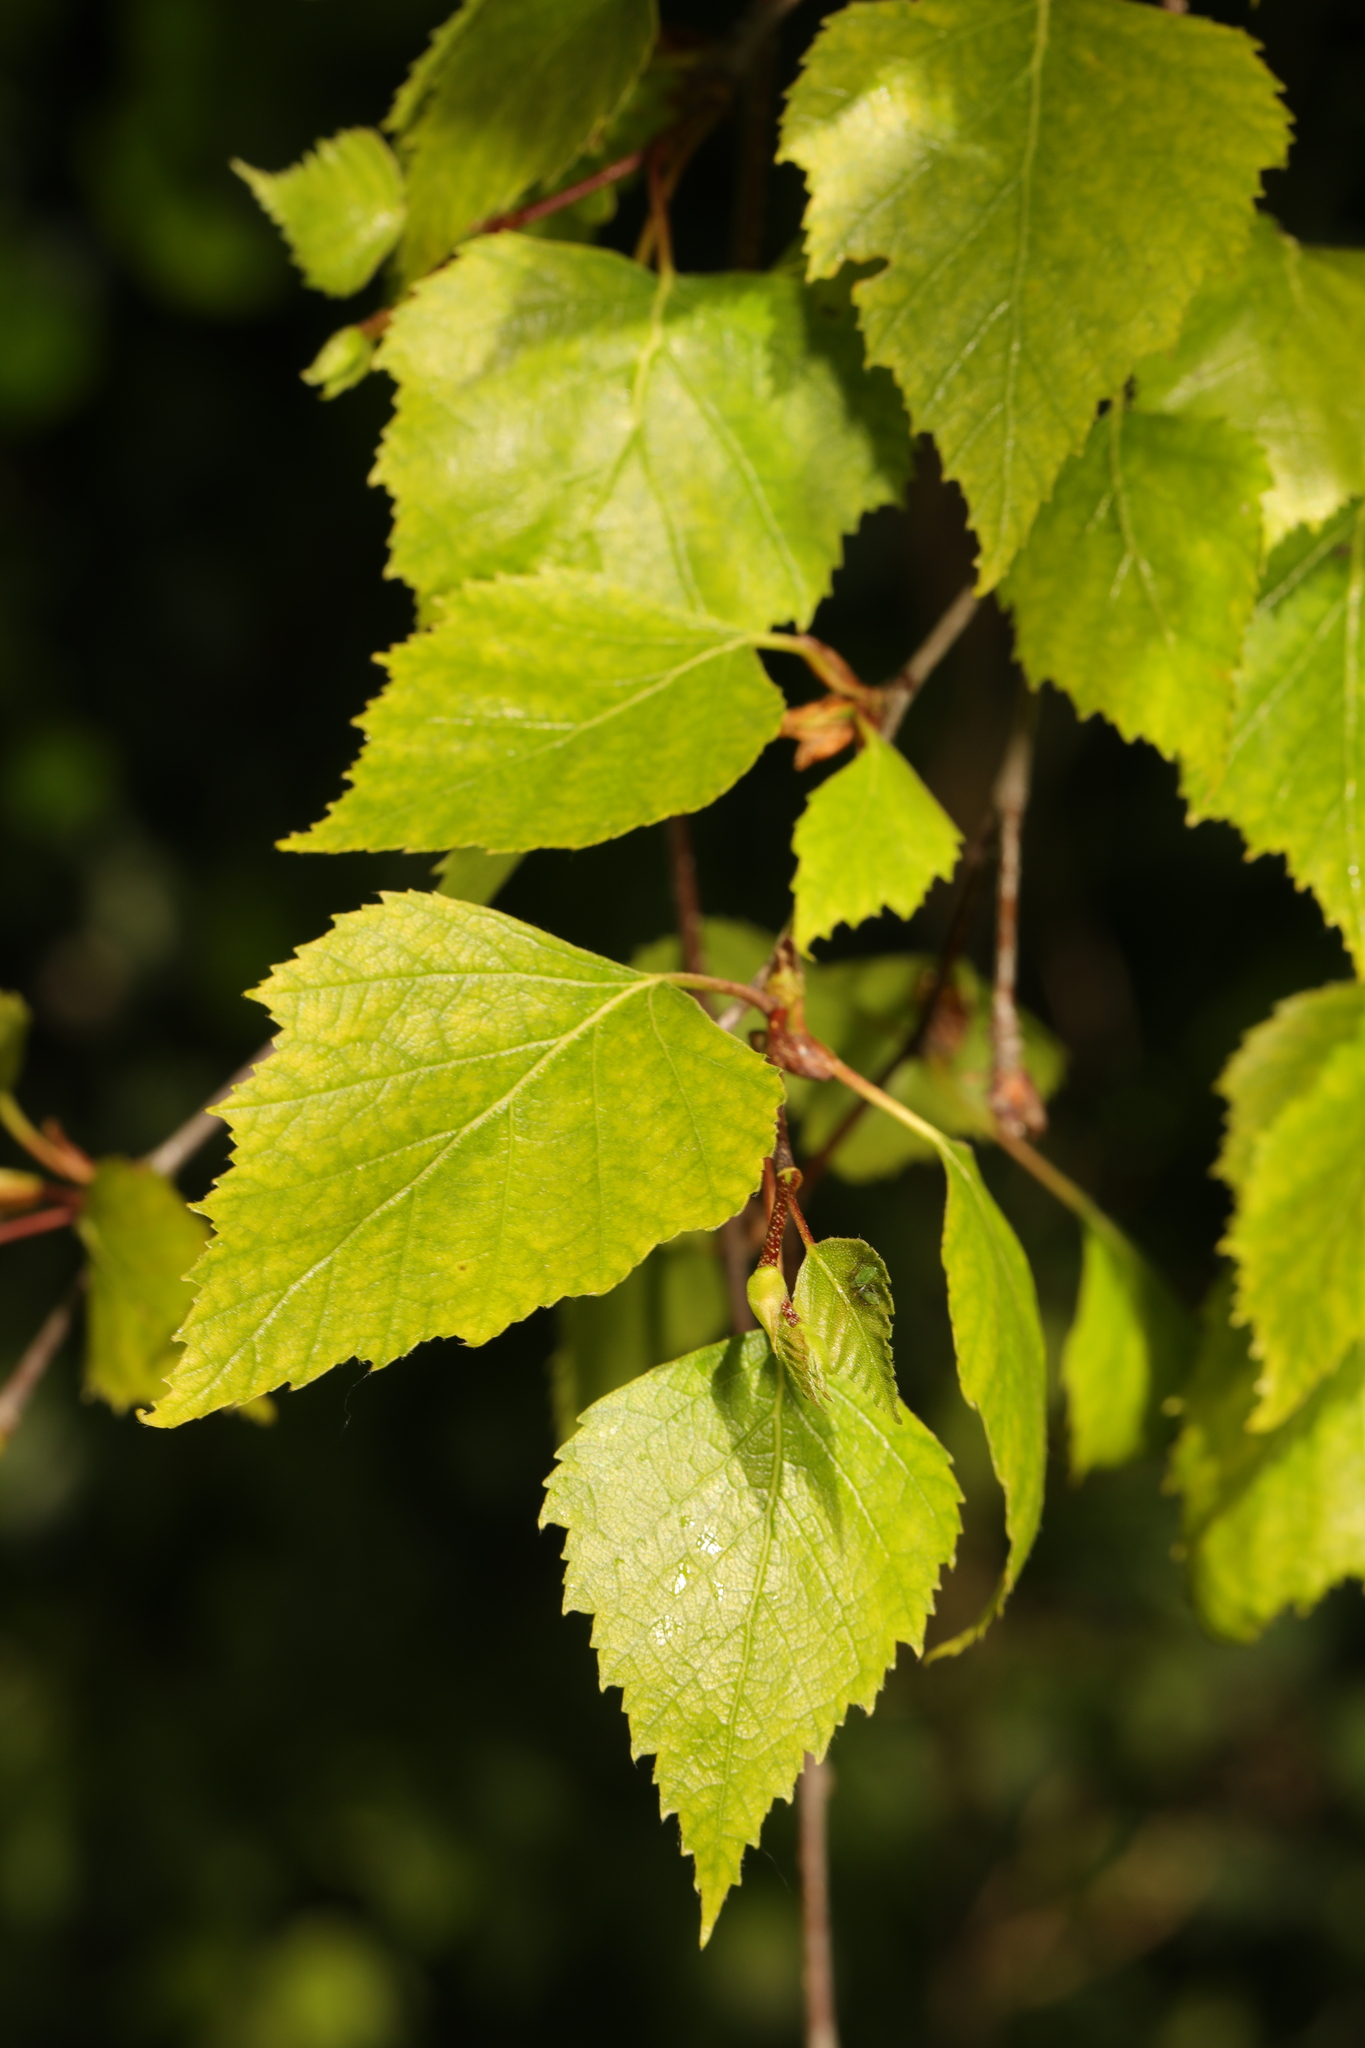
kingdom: Plantae
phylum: Tracheophyta
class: Magnoliopsida
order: Fagales
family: Betulaceae
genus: Betula
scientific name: Betula pendula
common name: Silver birch
